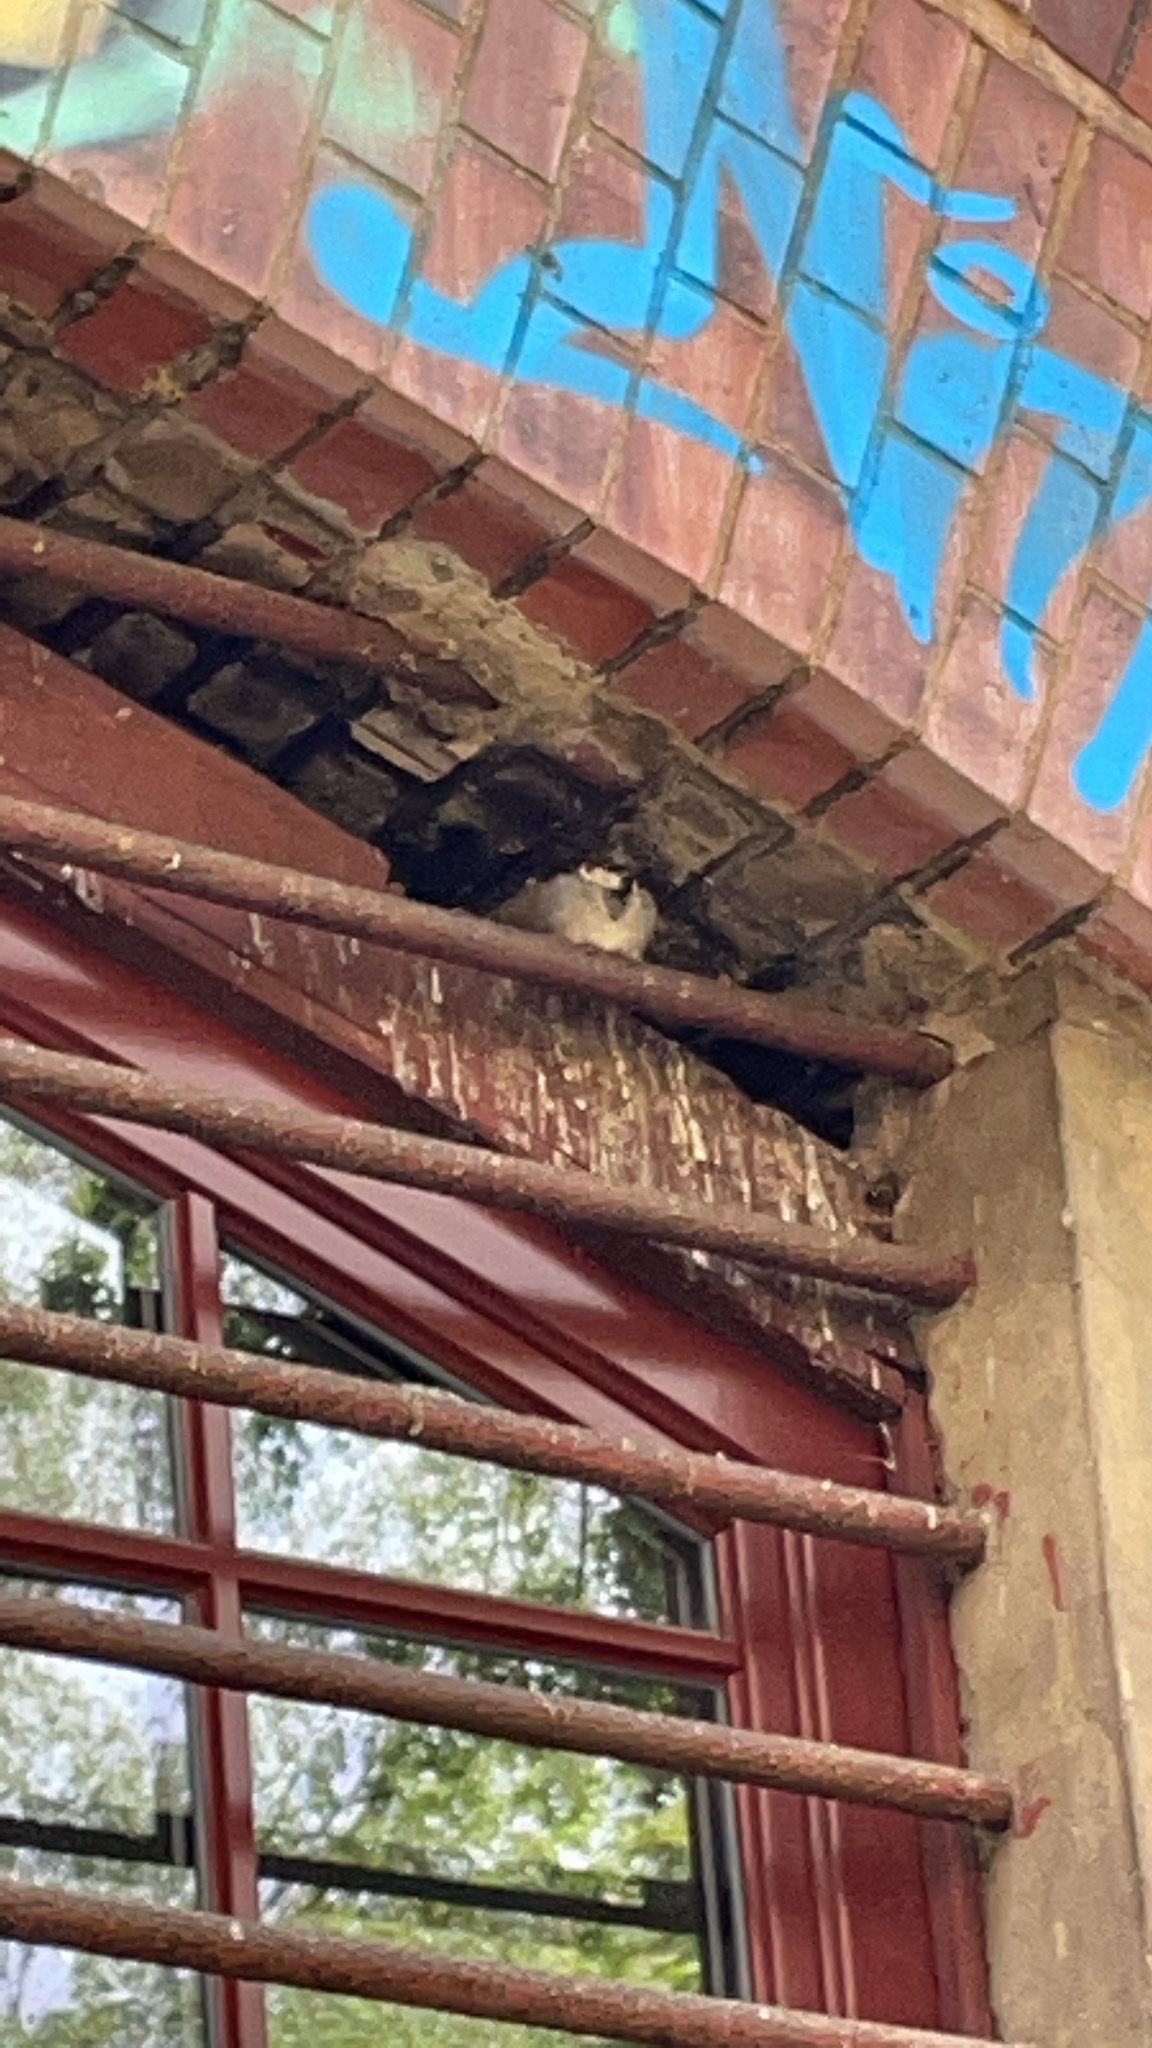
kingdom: Animalia
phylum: Chordata
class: Aves
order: Passeriformes
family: Passeridae
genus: Passer
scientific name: Passer domesticus
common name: House sparrow
